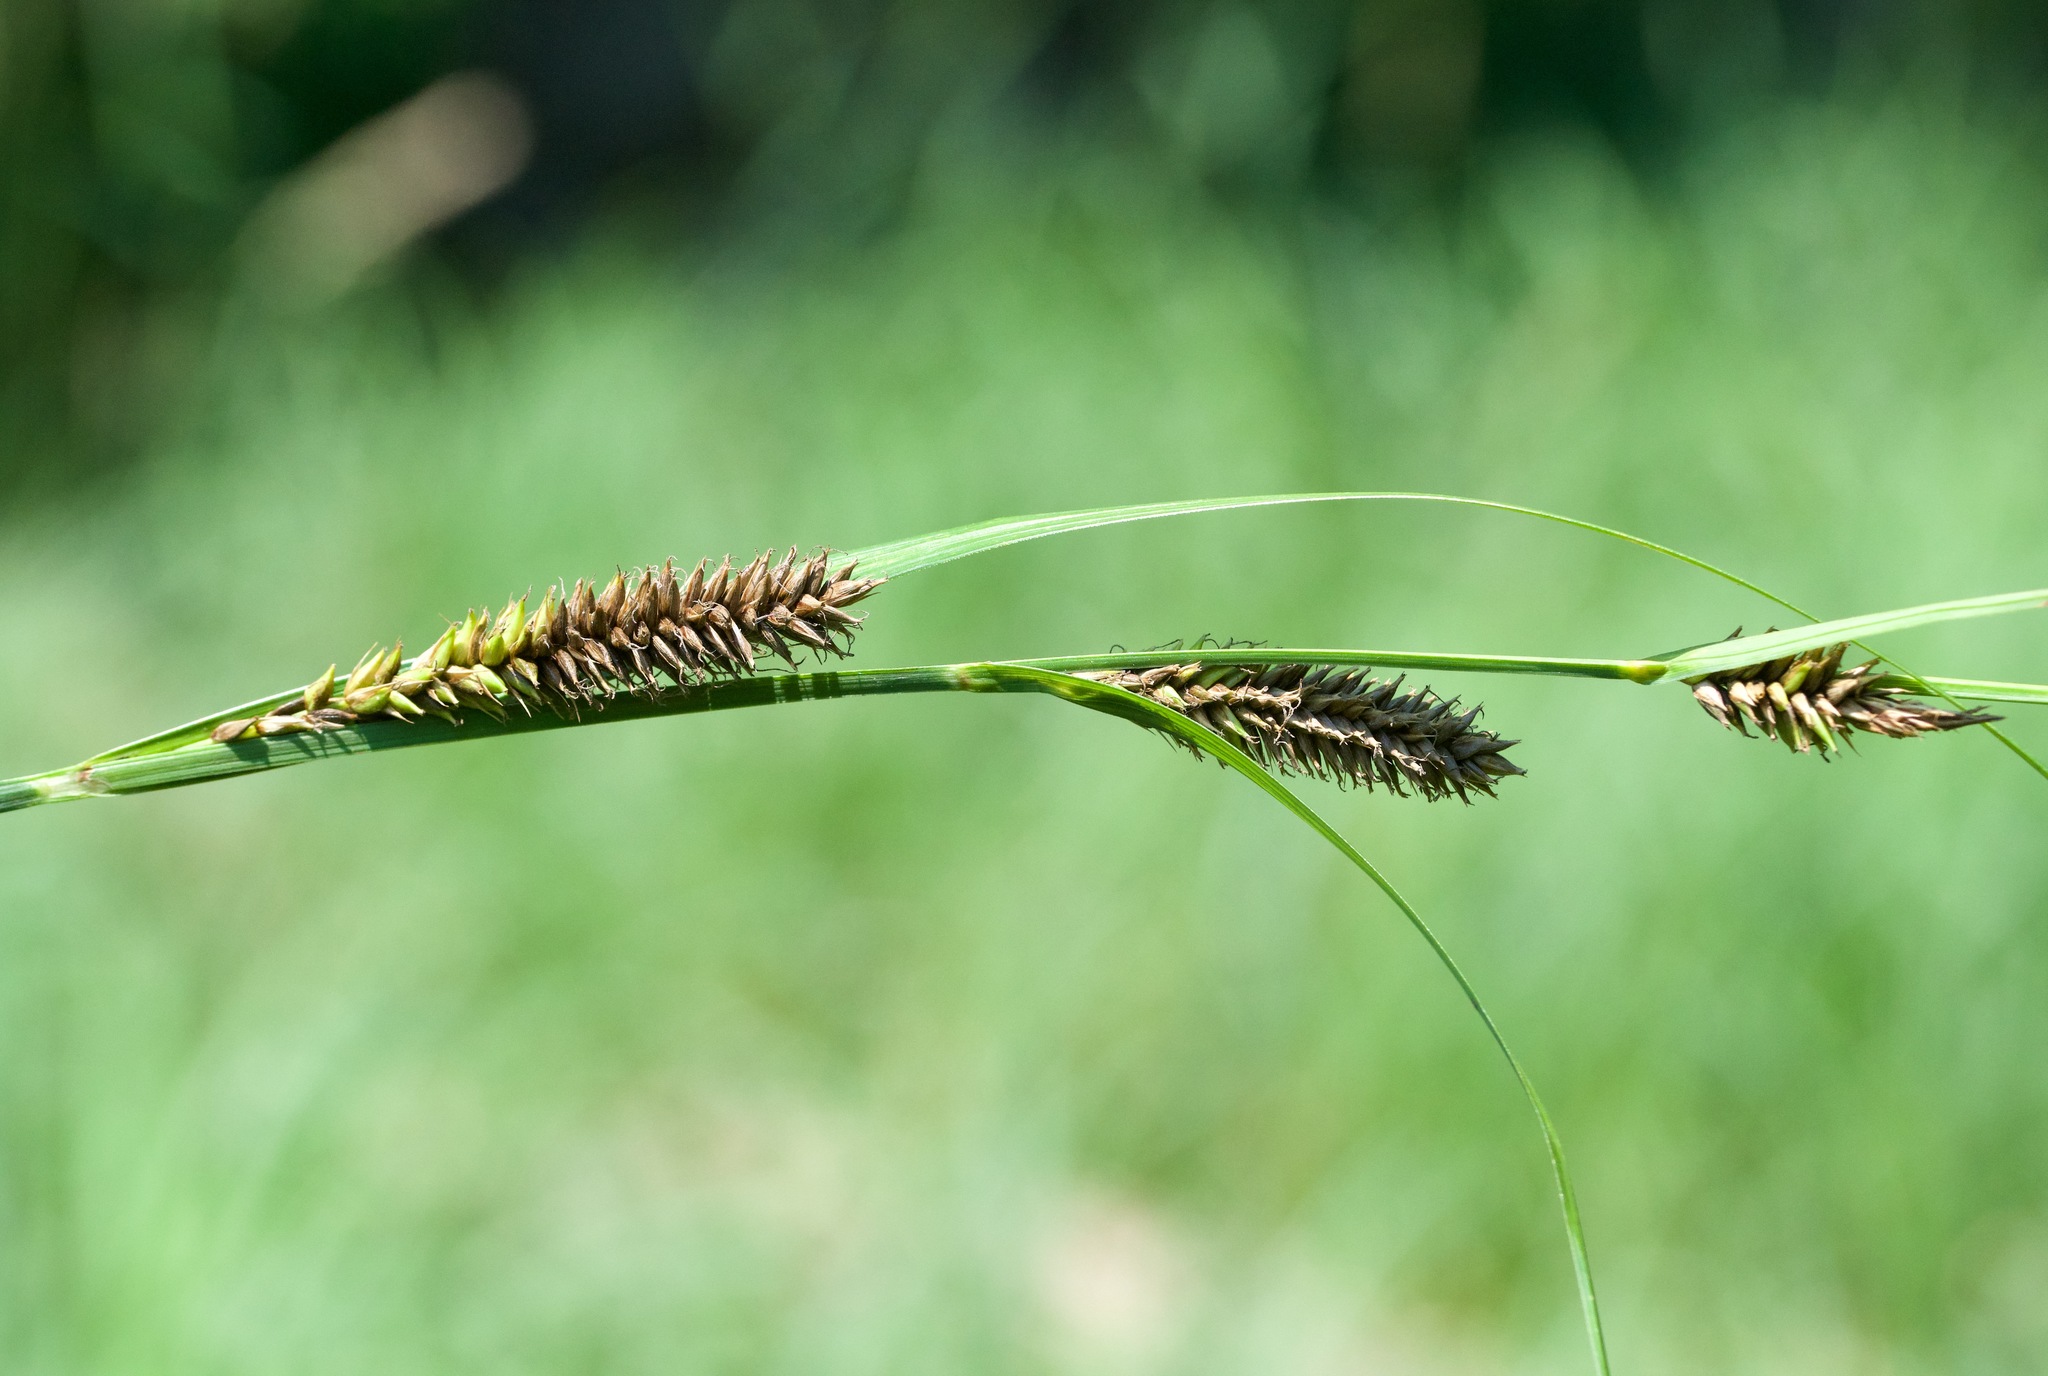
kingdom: Plantae
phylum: Tracheophyta
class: Liliopsida
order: Poales
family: Cyperaceae
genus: Carex
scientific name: Carex lacustris
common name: Common lake sedge
